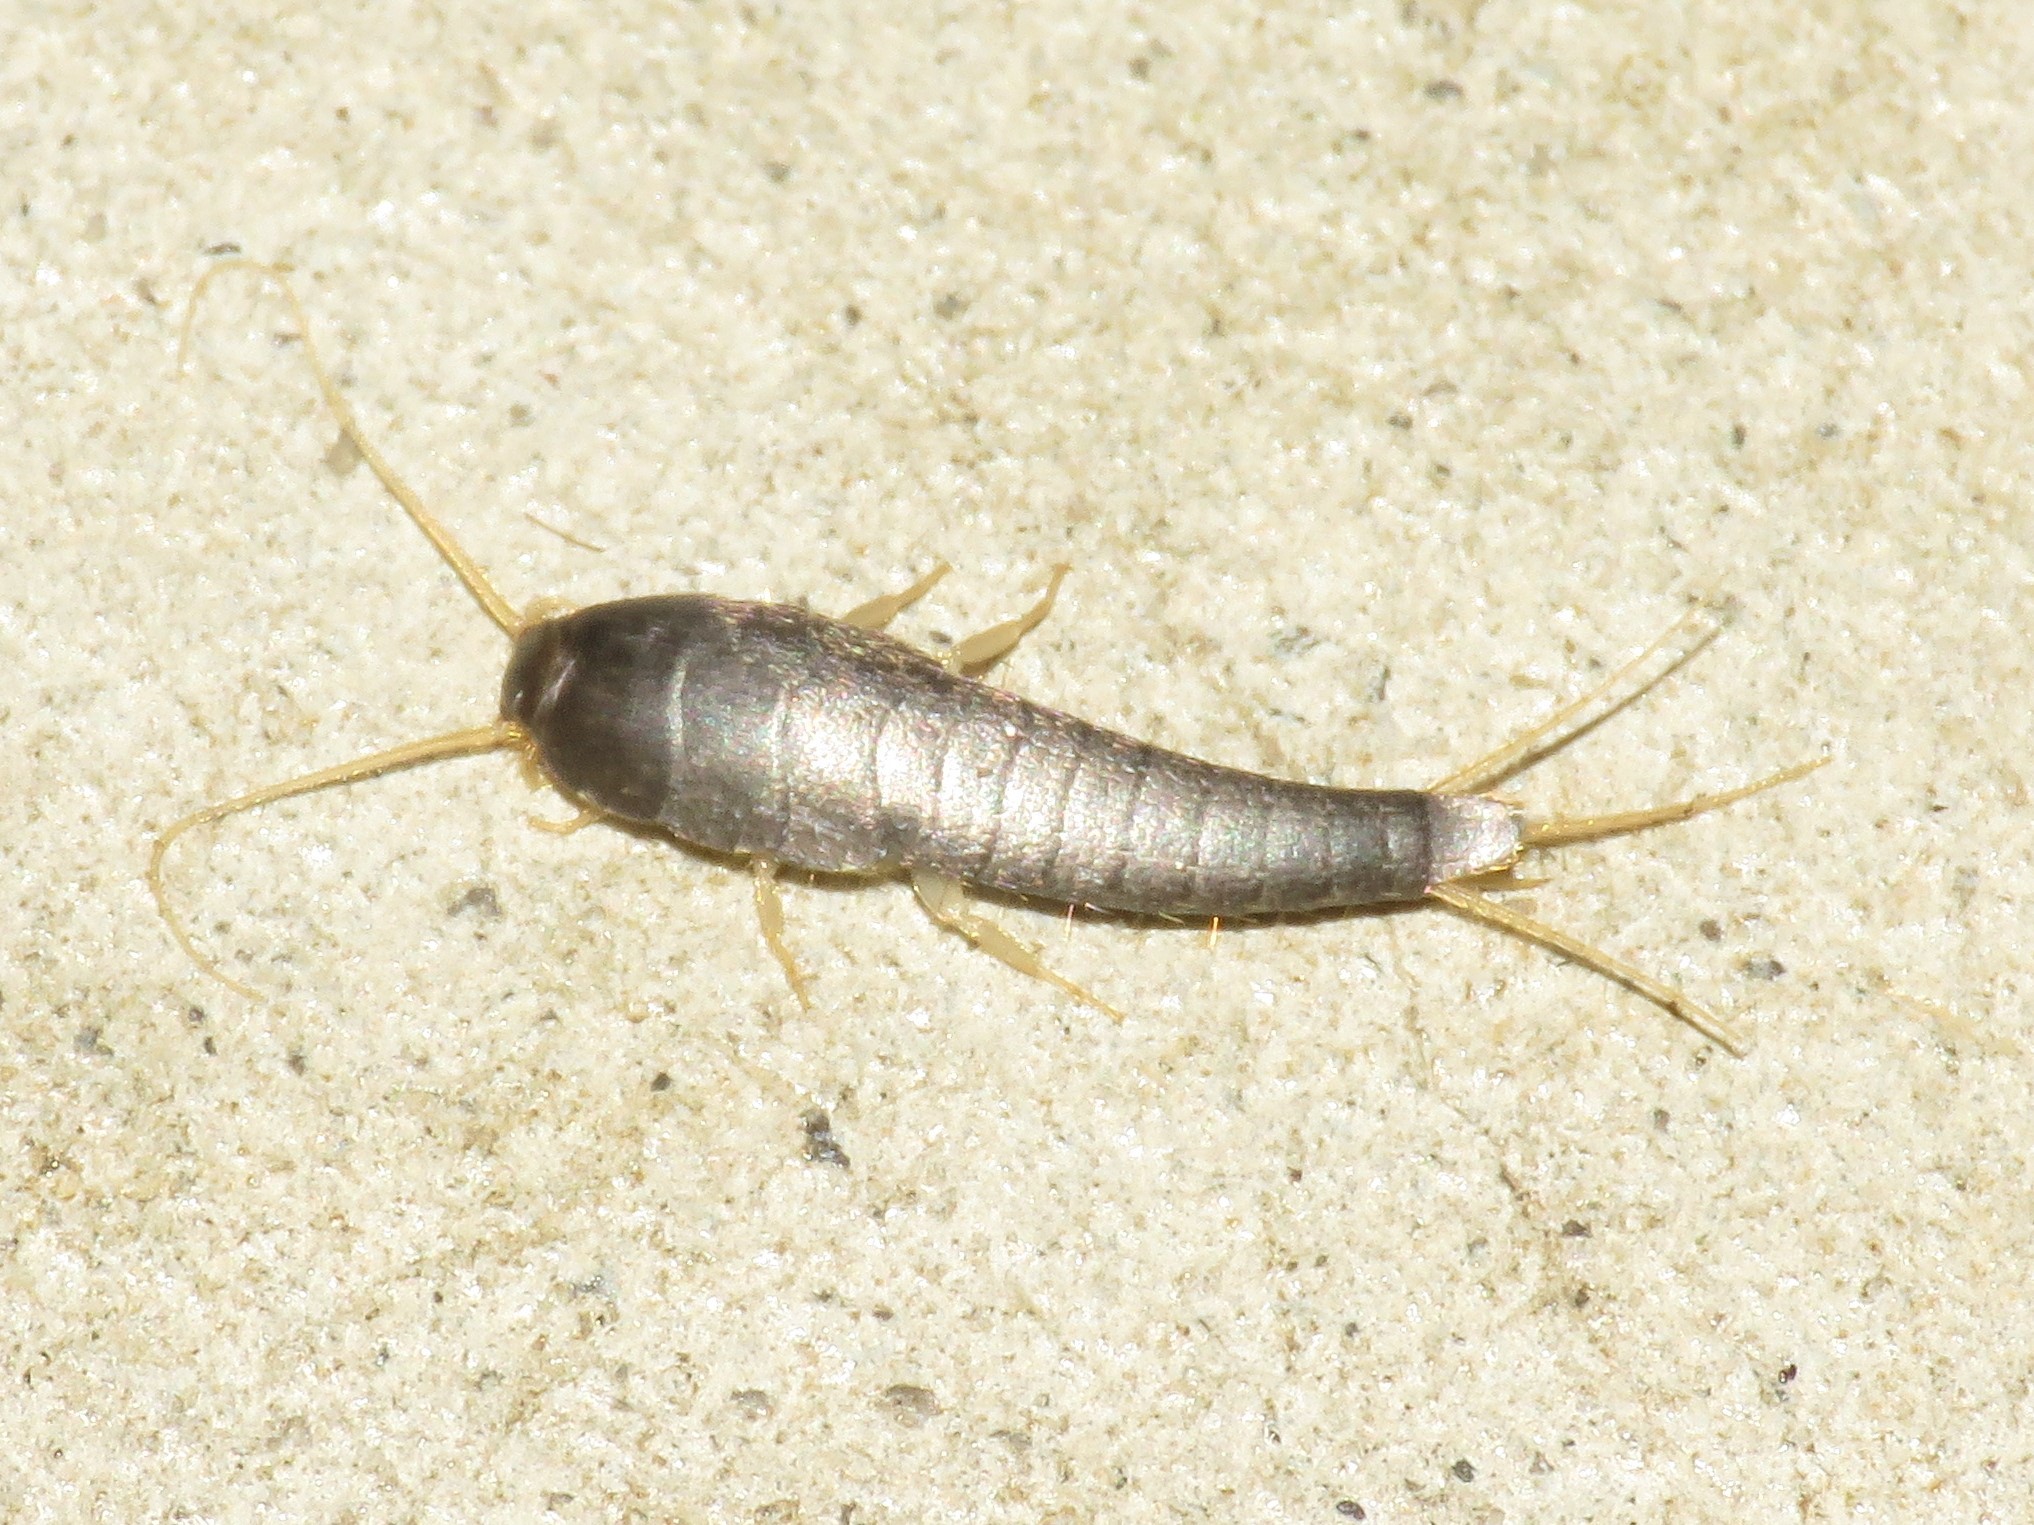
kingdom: Animalia
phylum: Arthropoda
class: Insecta
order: Zygentoma
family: Lepismatidae
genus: Lepisma
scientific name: Lepisma saccharinum
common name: Silverfish
